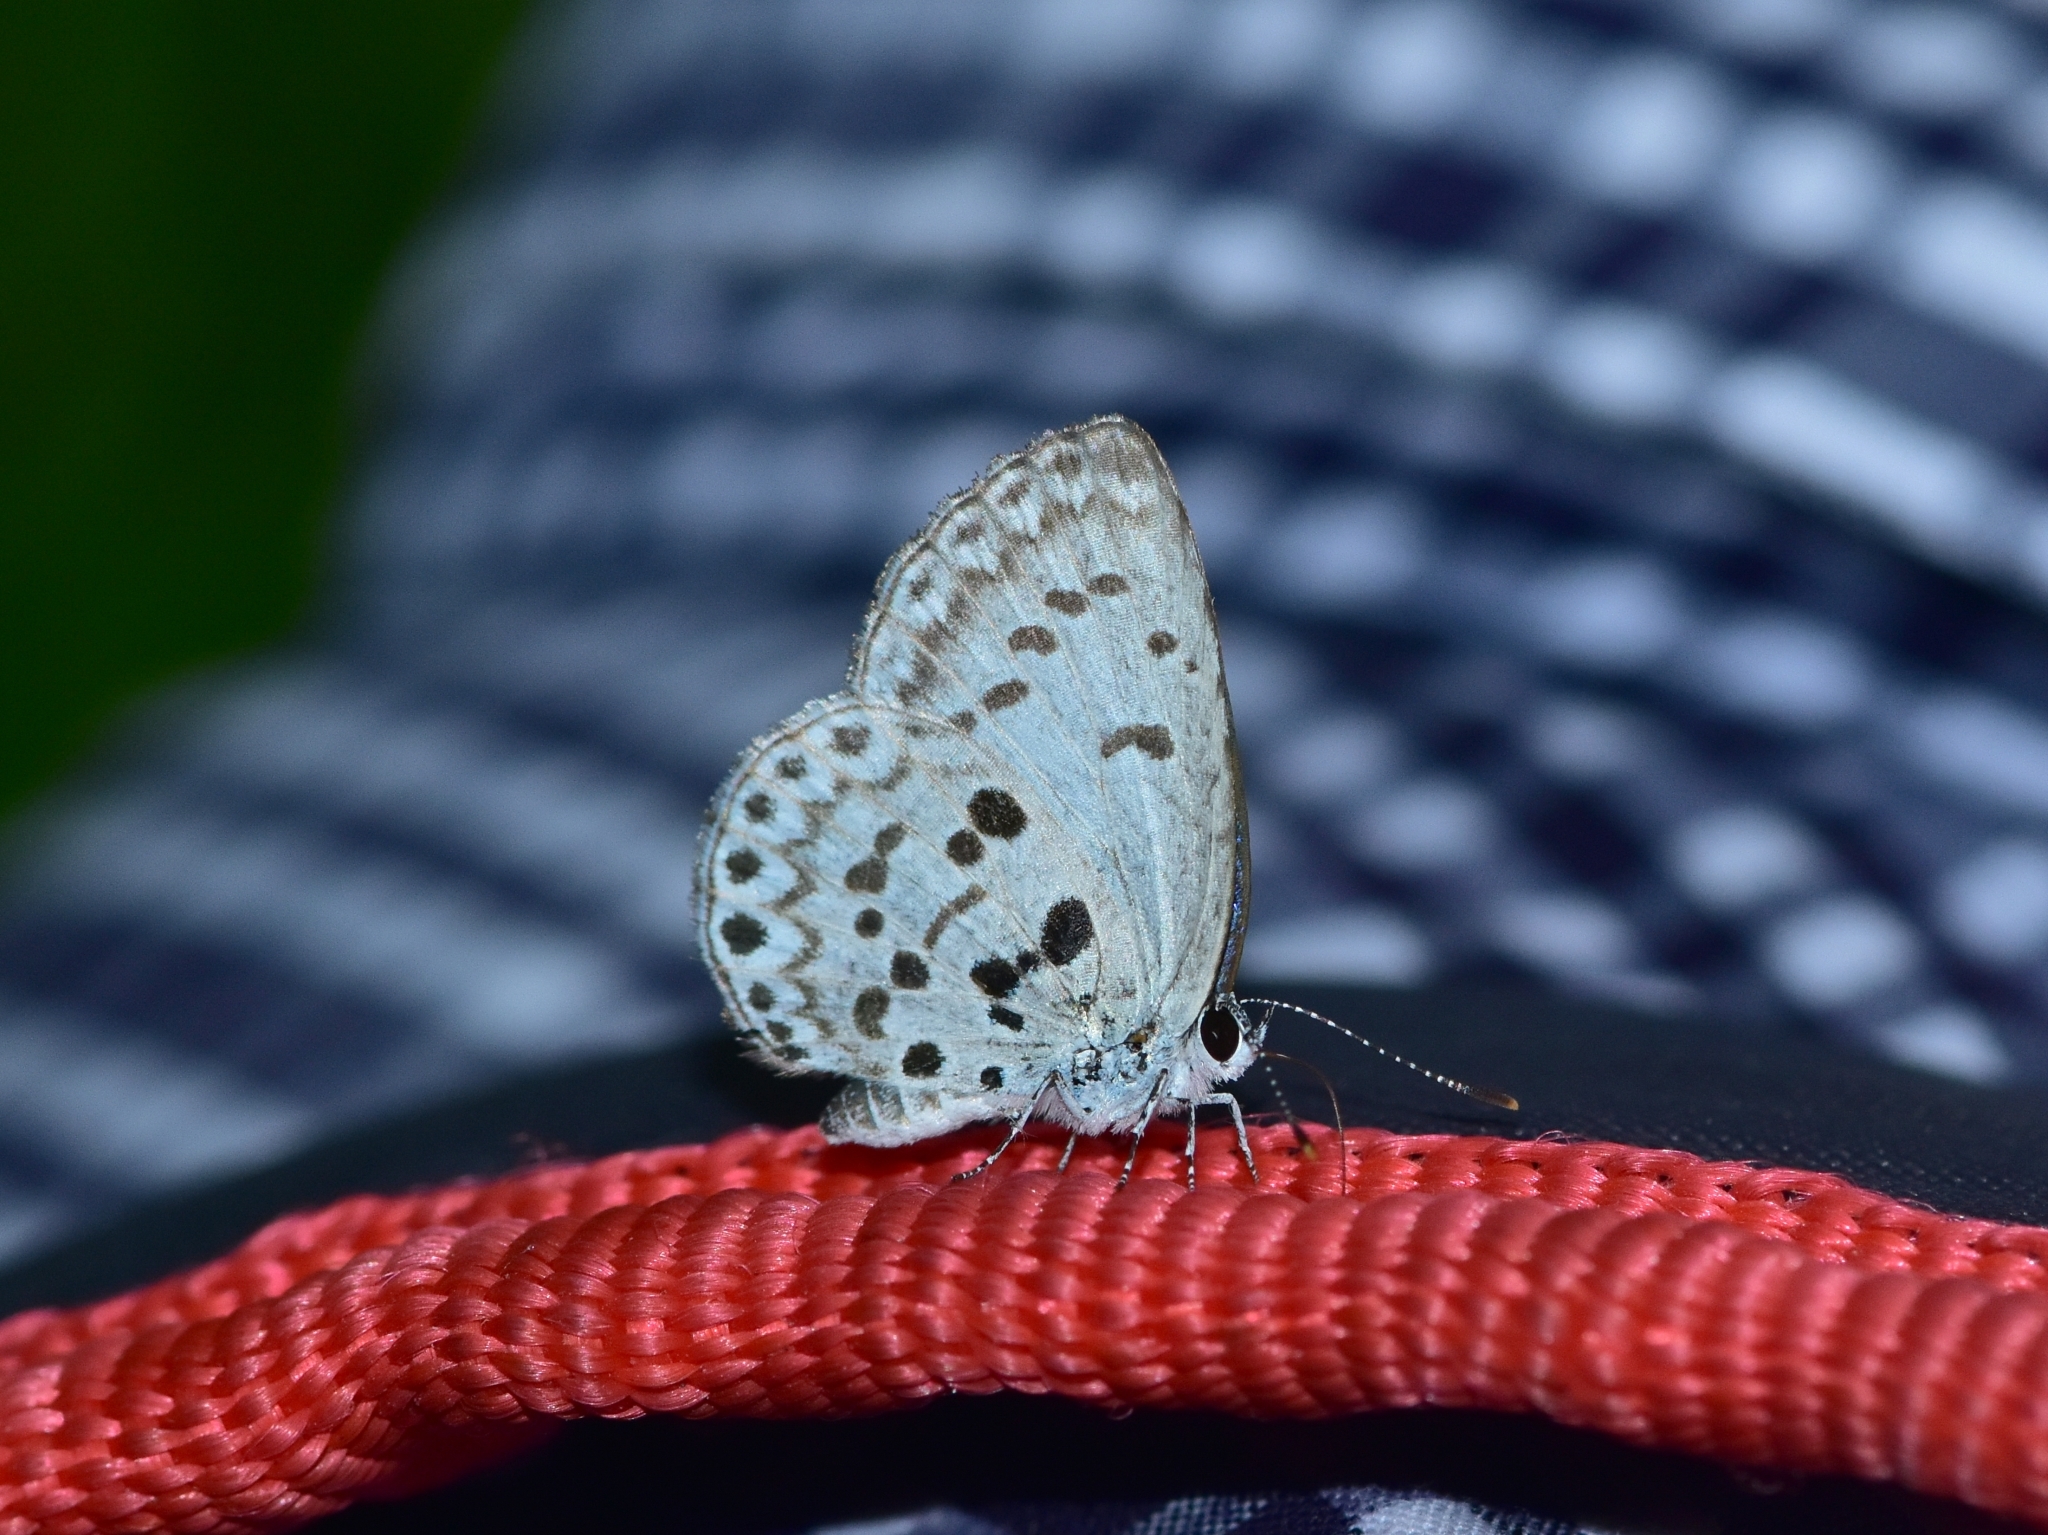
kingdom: Animalia
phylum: Arthropoda
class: Insecta
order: Lepidoptera
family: Lycaenidae
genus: Acytolepis
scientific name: Acytolepis
